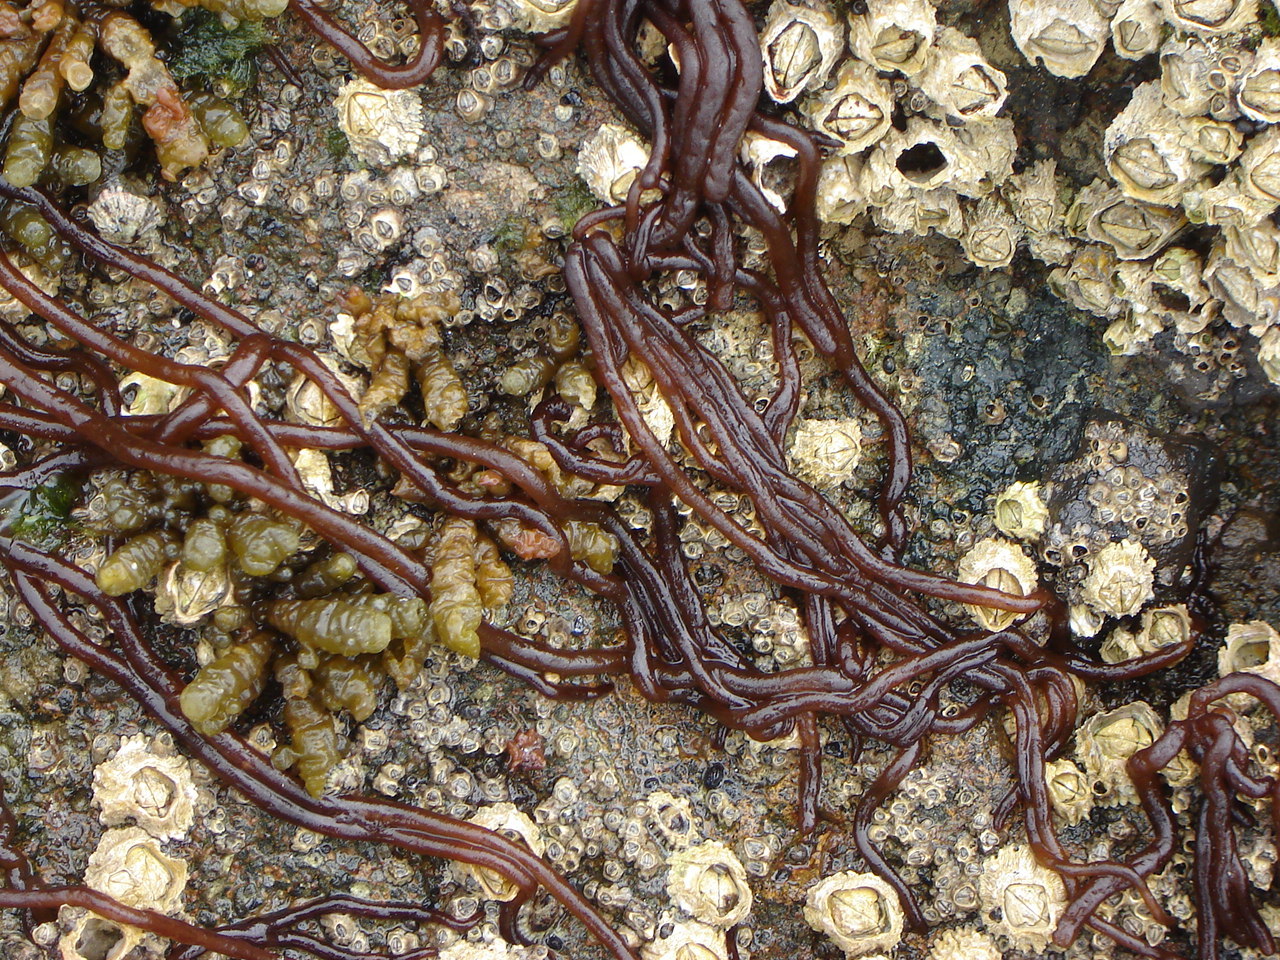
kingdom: Plantae
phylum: Rhodophyta
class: Florideophyceae
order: Nemaliales
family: Nemaliaceae
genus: Nemalion
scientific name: Nemalion elminthoides
